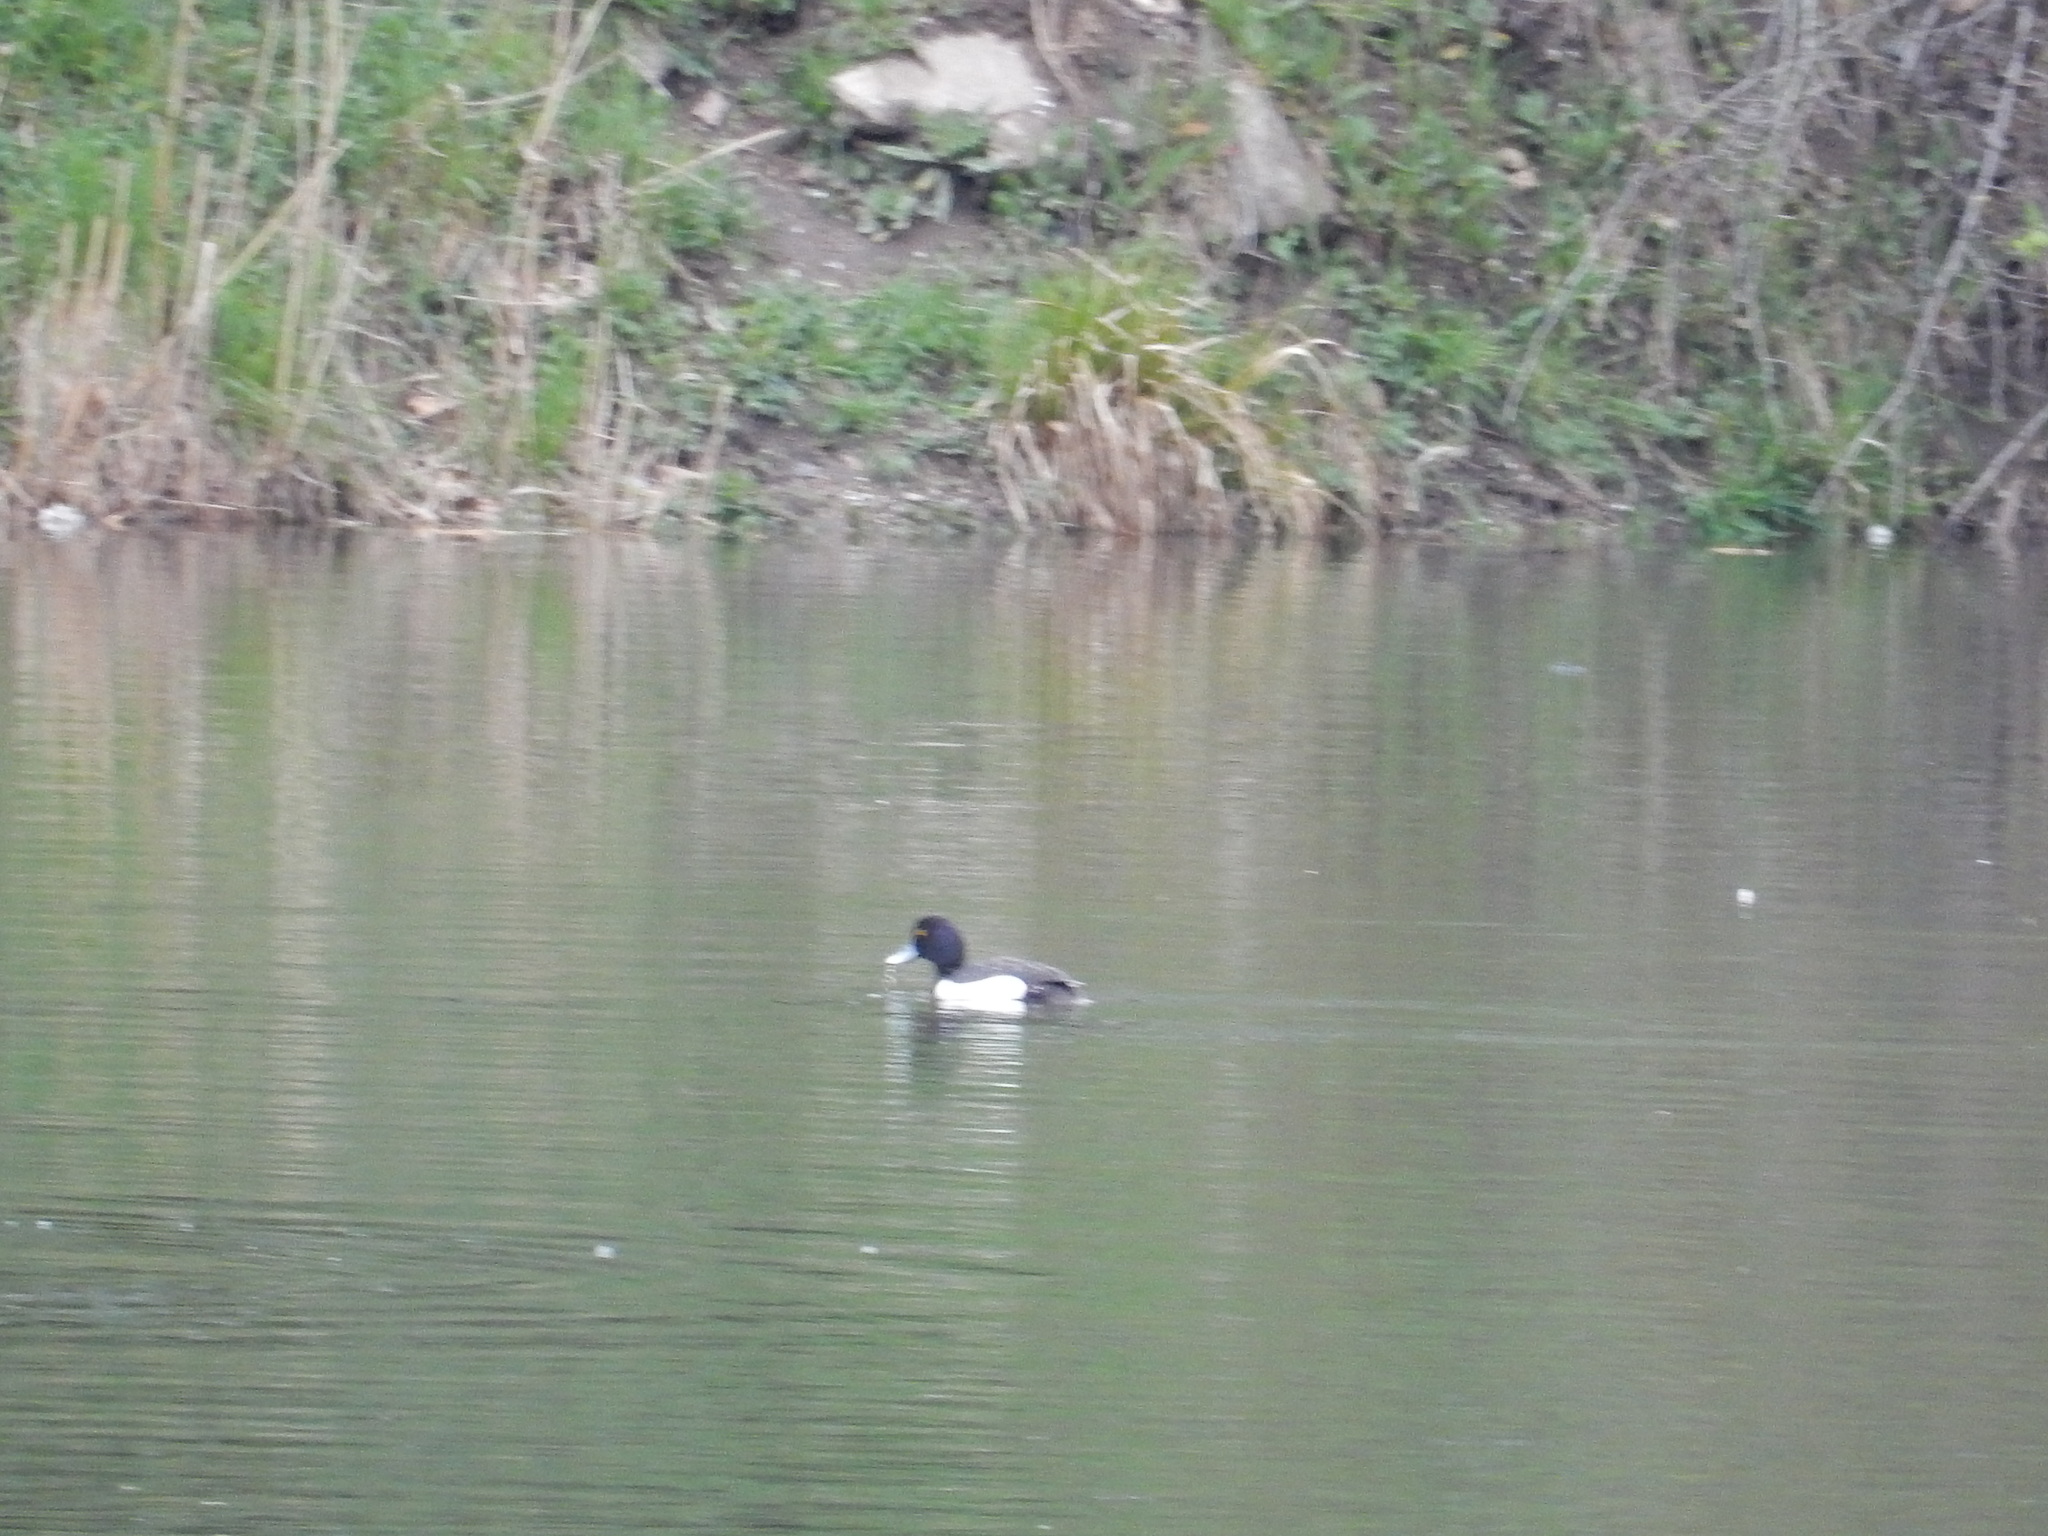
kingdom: Animalia
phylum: Chordata
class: Aves
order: Anseriformes
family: Anatidae
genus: Aythya
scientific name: Aythya fuligula
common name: Tufted duck
